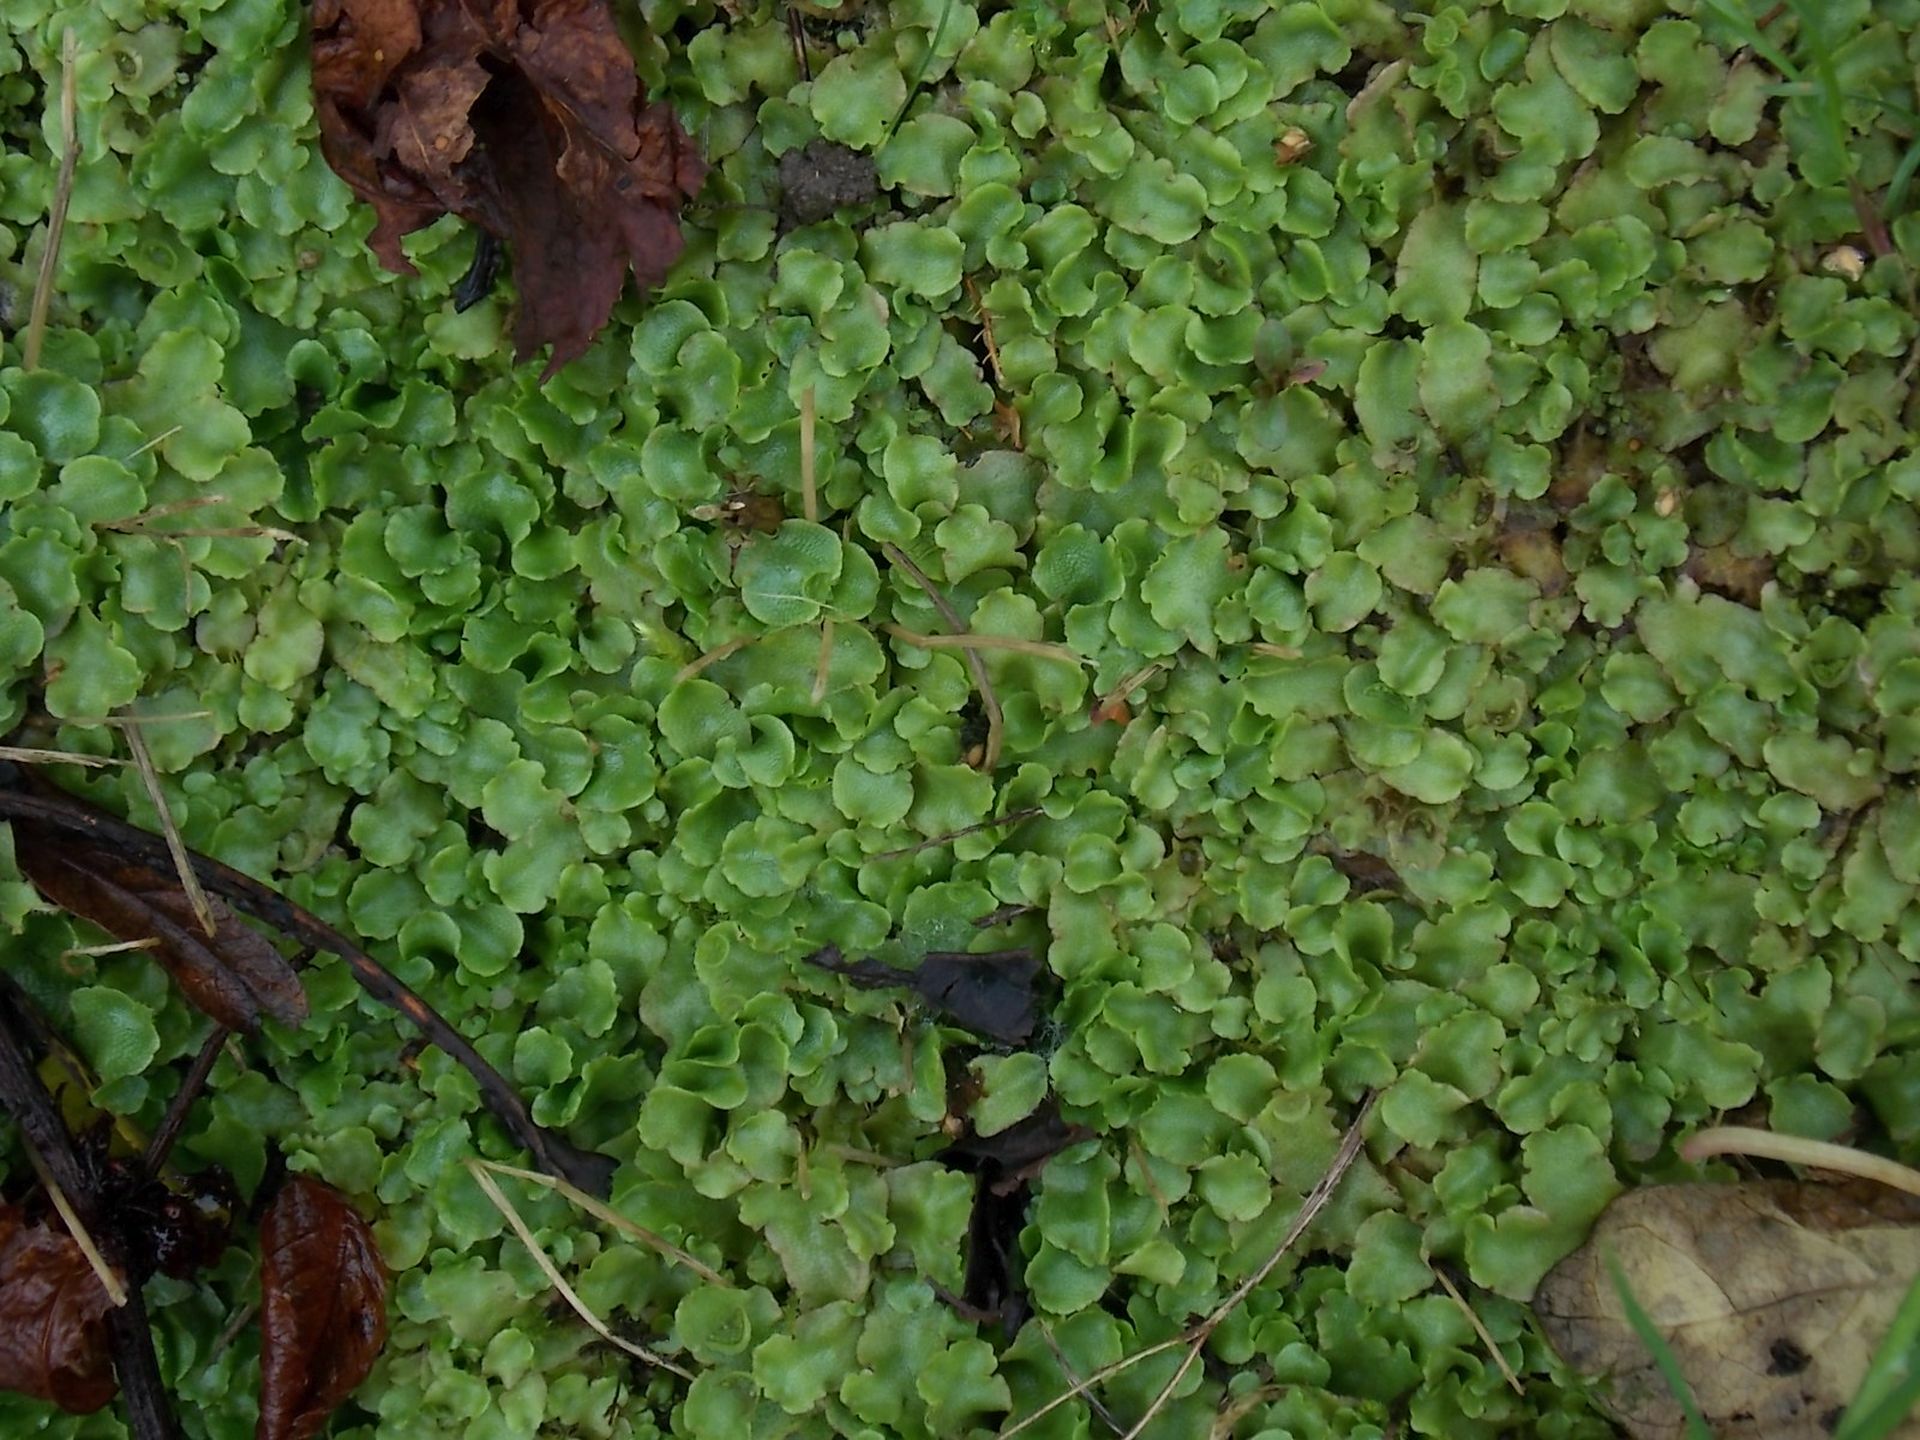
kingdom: Plantae
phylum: Marchantiophyta
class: Marchantiopsida
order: Lunulariales
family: Lunulariaceae
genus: Lunularia
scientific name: Lunularia cruciata
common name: Crescent-cup liverwort
